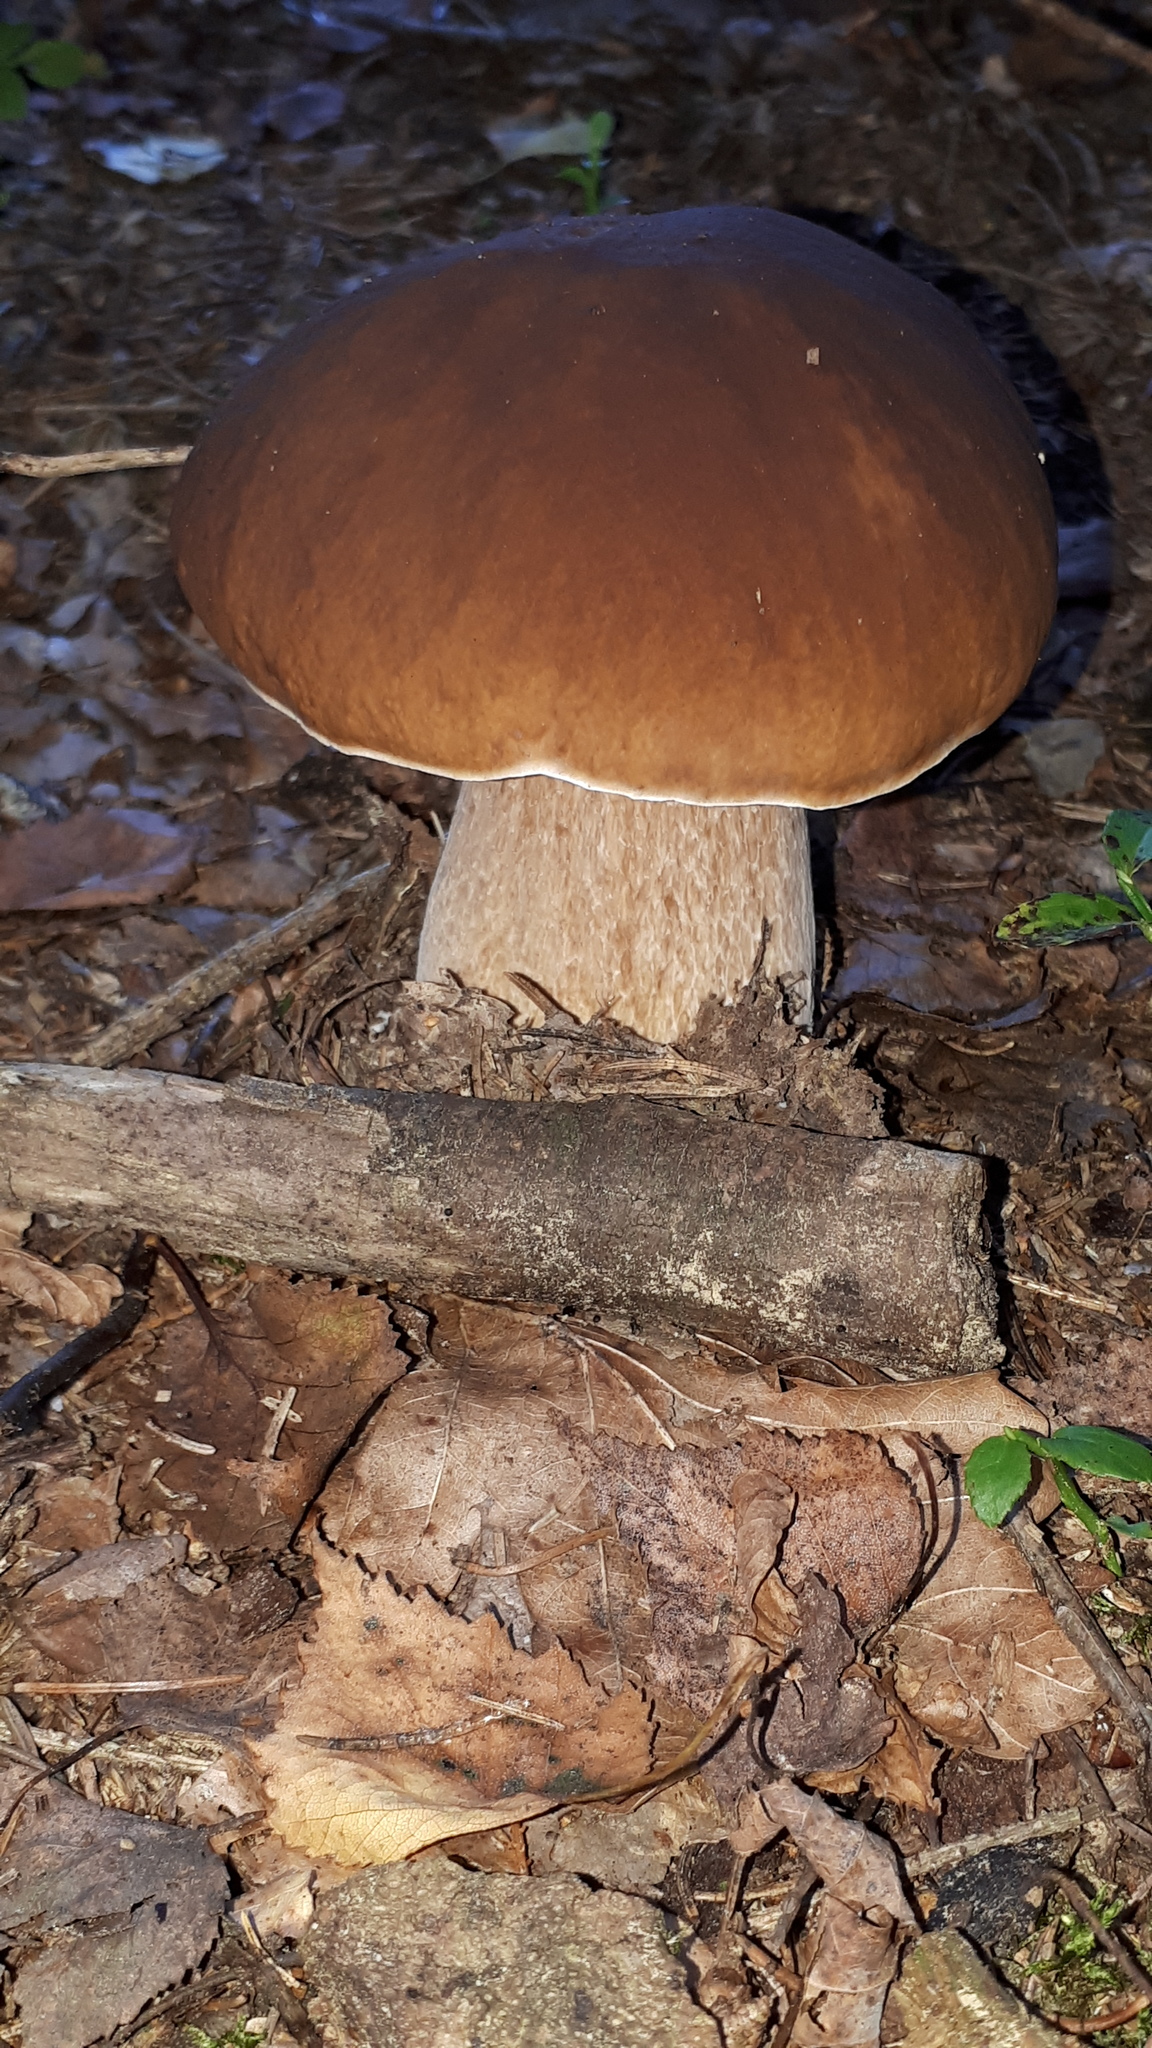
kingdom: Fungi
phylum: Basidiomycota
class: Agaricomycetes
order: Boletales
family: Boletaceae
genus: Boletus
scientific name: Boletus edulis
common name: Cep
